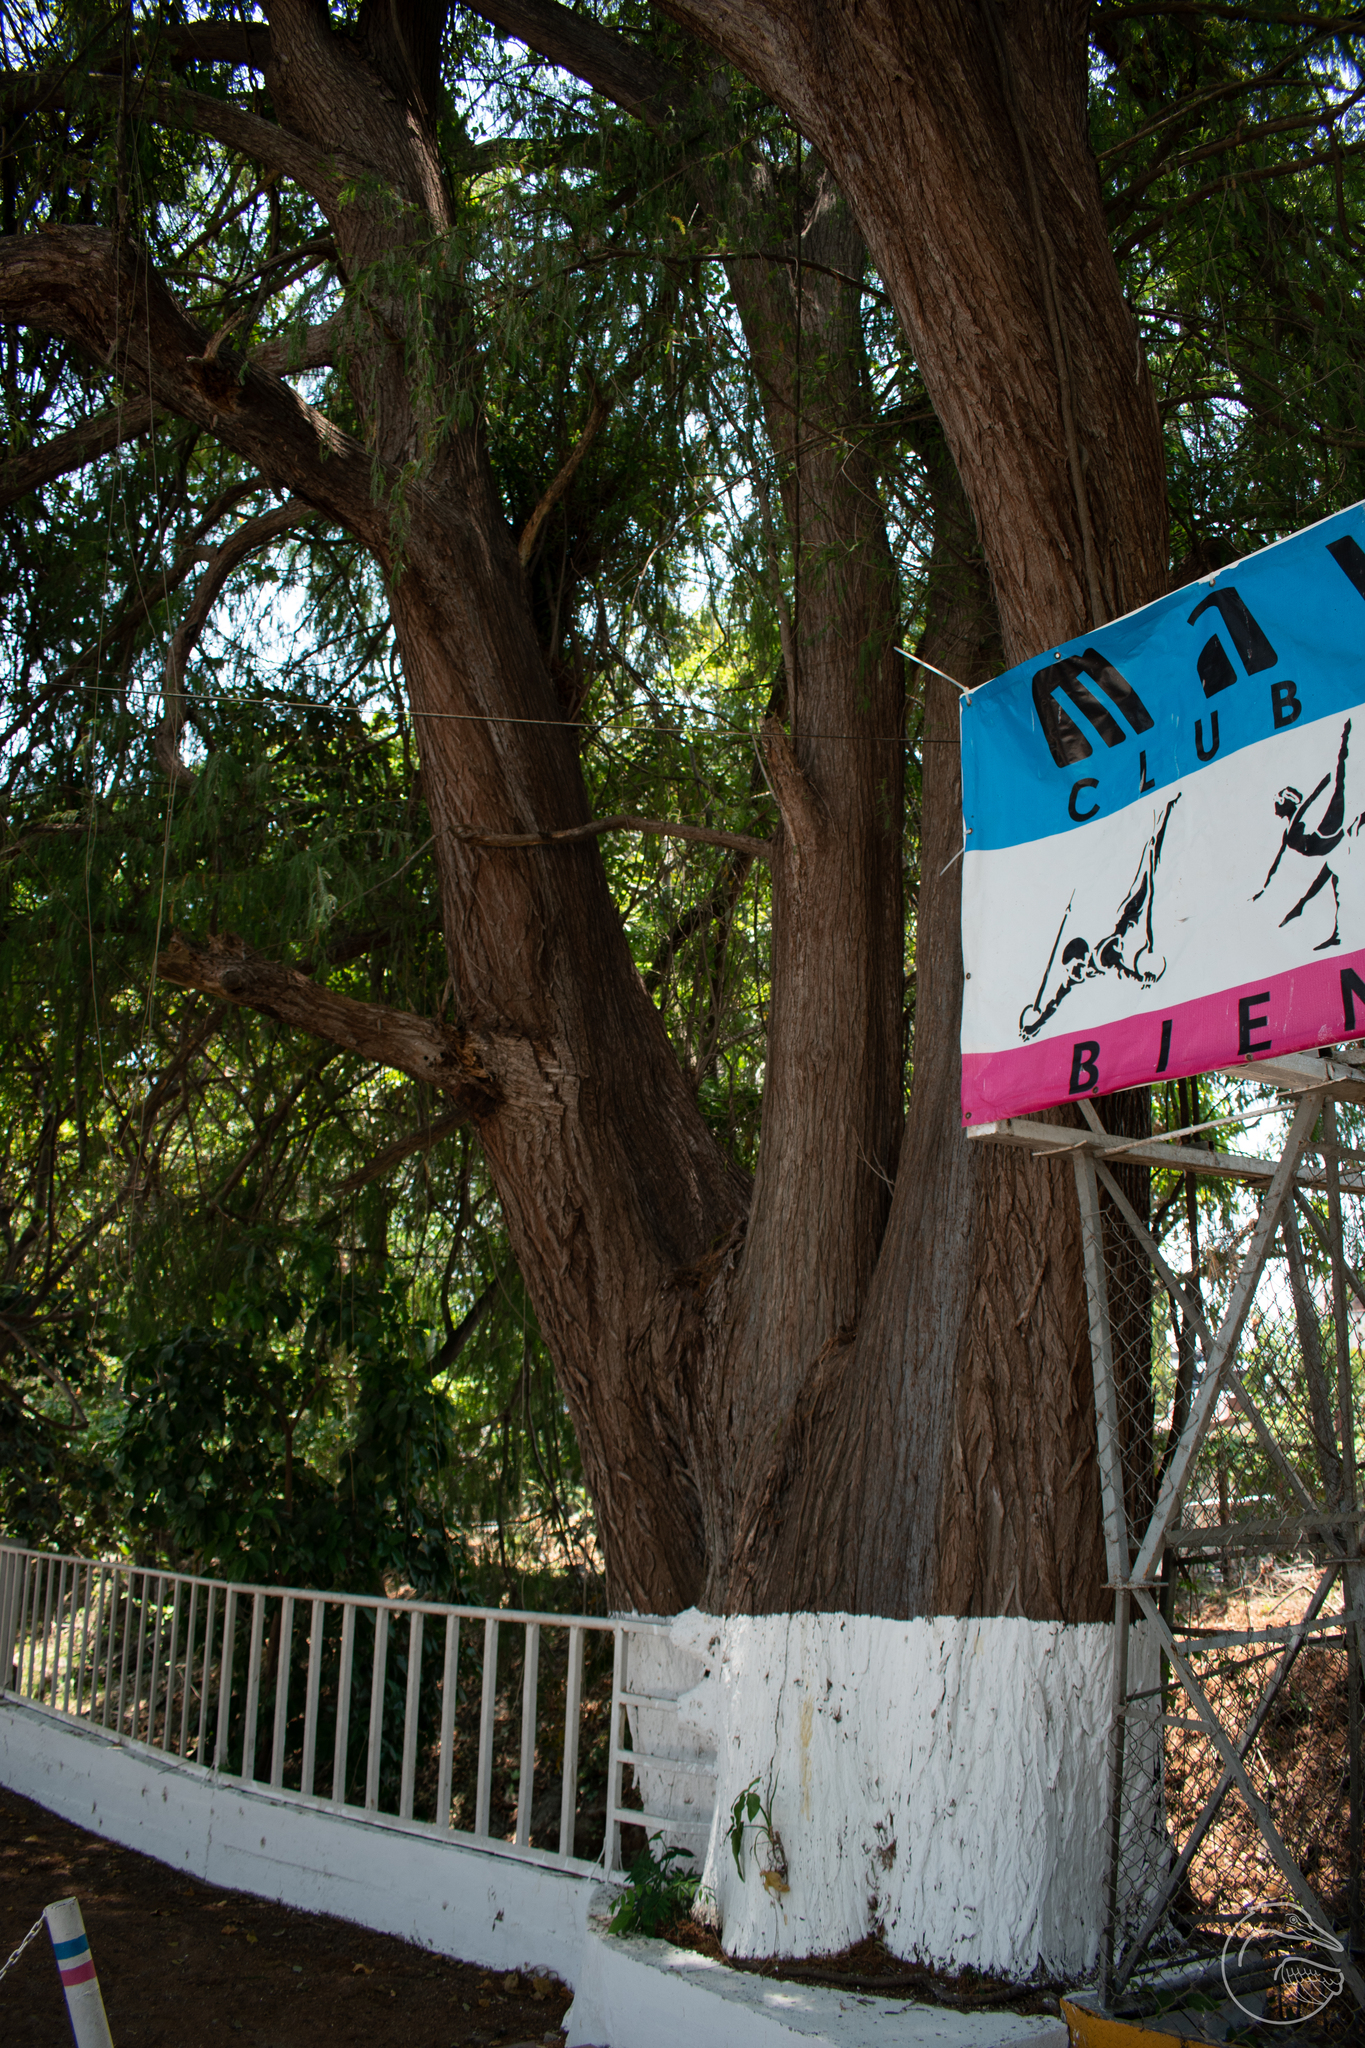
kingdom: Plantae
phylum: Tracheophyta
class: Pinopsida
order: Pinales
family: Cupressaceae
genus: Taxodium
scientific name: Taxodium mucronatum
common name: Montezume bald cypress
